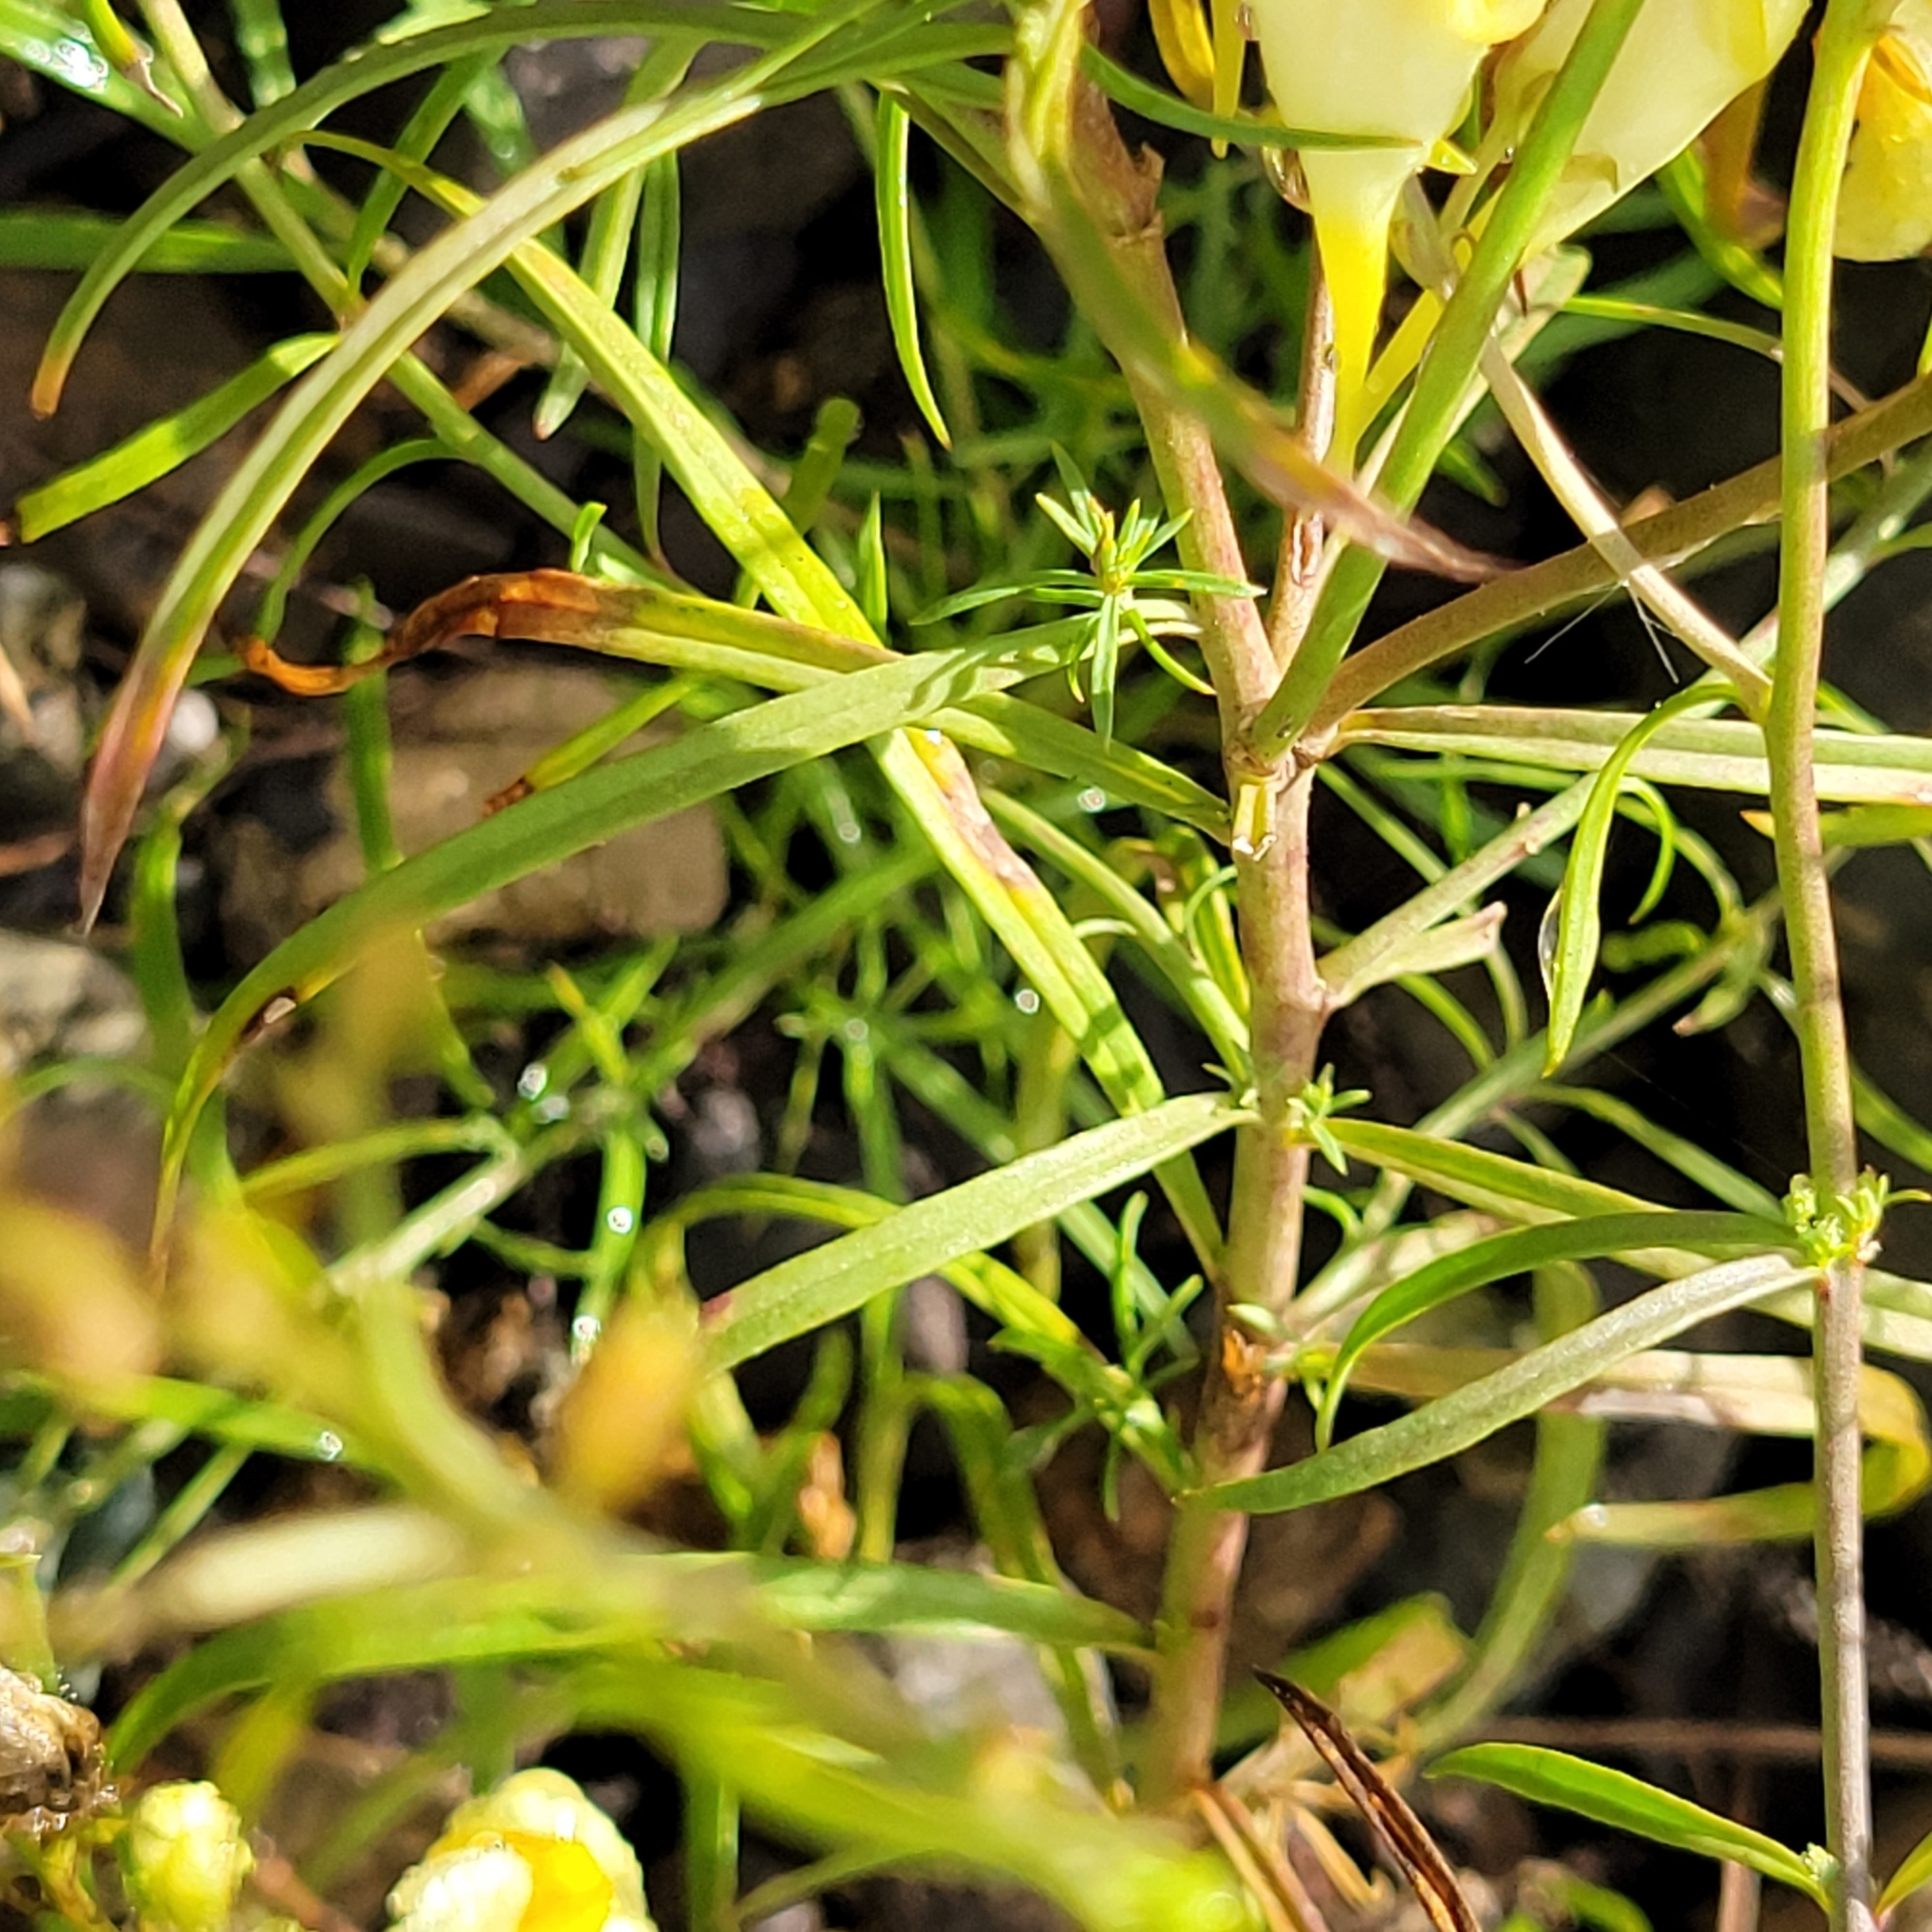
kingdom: Plantae
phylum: Tracheophyta
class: Magnoliopsida
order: Lamiales
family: Plantaginaceae
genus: Linaria
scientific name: Linaria vulgaris
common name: Butter and eggs
